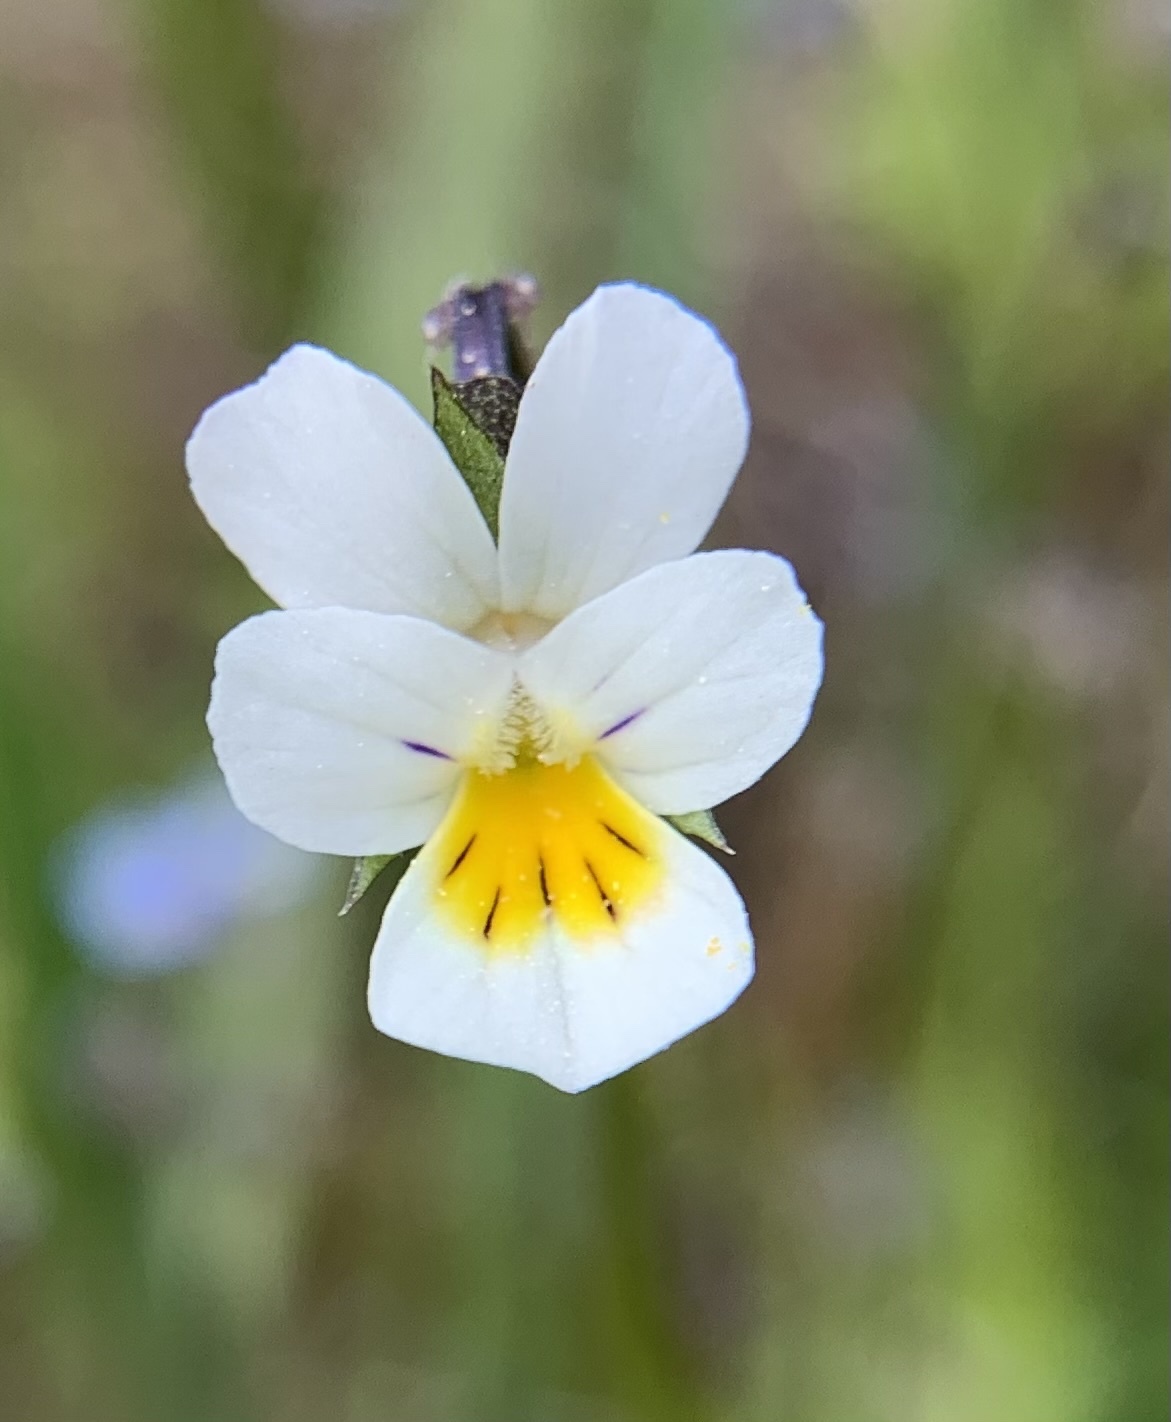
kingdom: Plantae
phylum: Tracheophyta
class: Magnoliopsida
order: Malpighiales
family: Violaceae
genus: Viola
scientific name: Viola arvensis
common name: Field pansy
